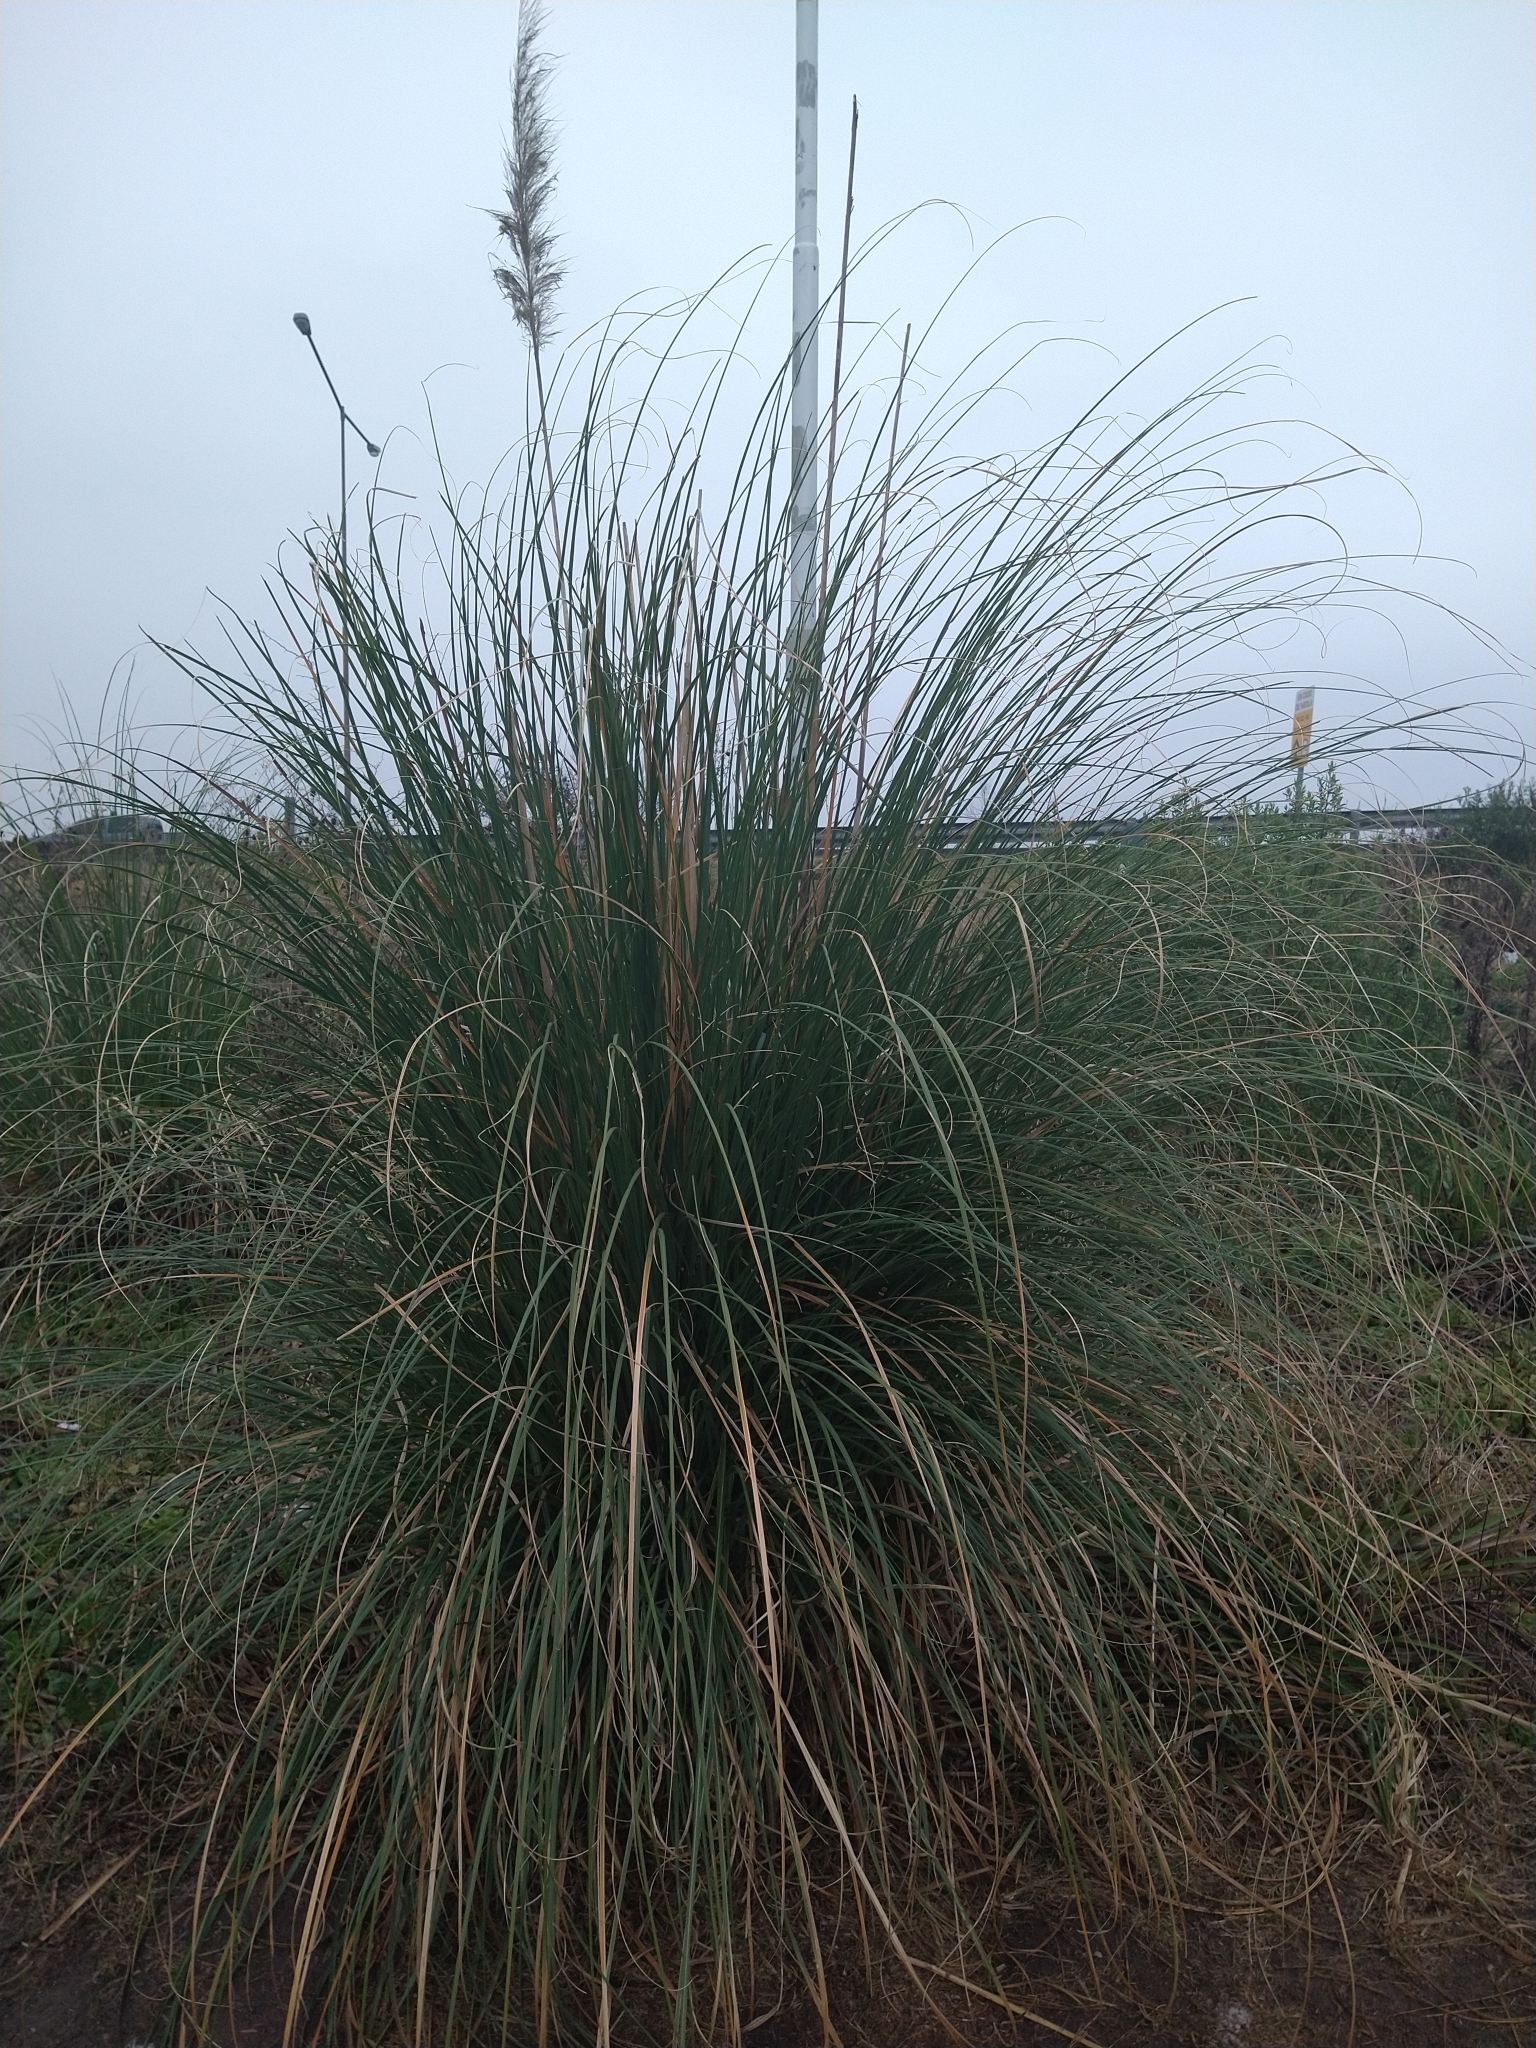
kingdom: Plantae
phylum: Tracheophyta
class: Liliopsida
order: Poales
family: Poaceae
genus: Cortaderia
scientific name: Cortaderia selloana
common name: Uruguayan pampas grass
